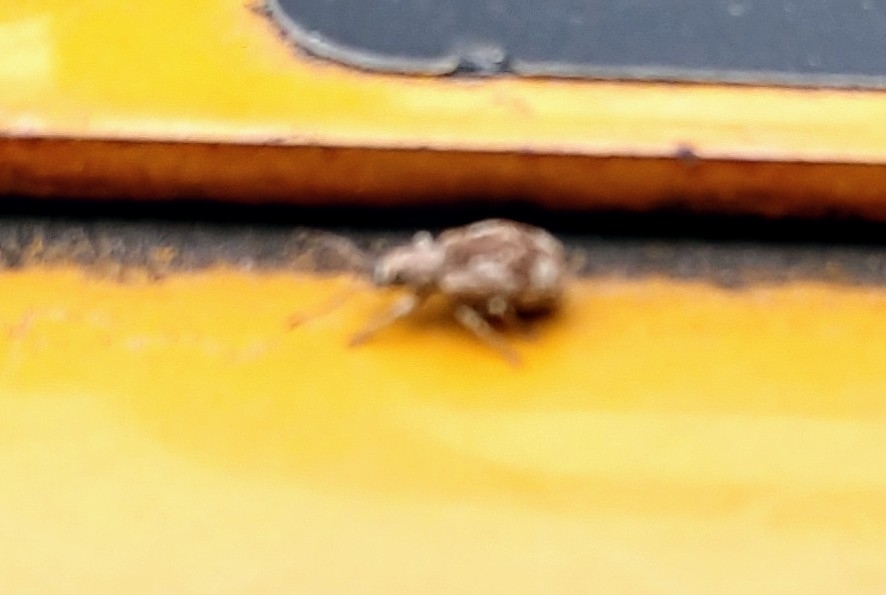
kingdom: Animalia
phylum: Arthropoda
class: Insecta
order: Coleoptera
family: Curculionidae
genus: Pseudoedophrys
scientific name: Pseudoedophrys hilleri
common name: Weevil
